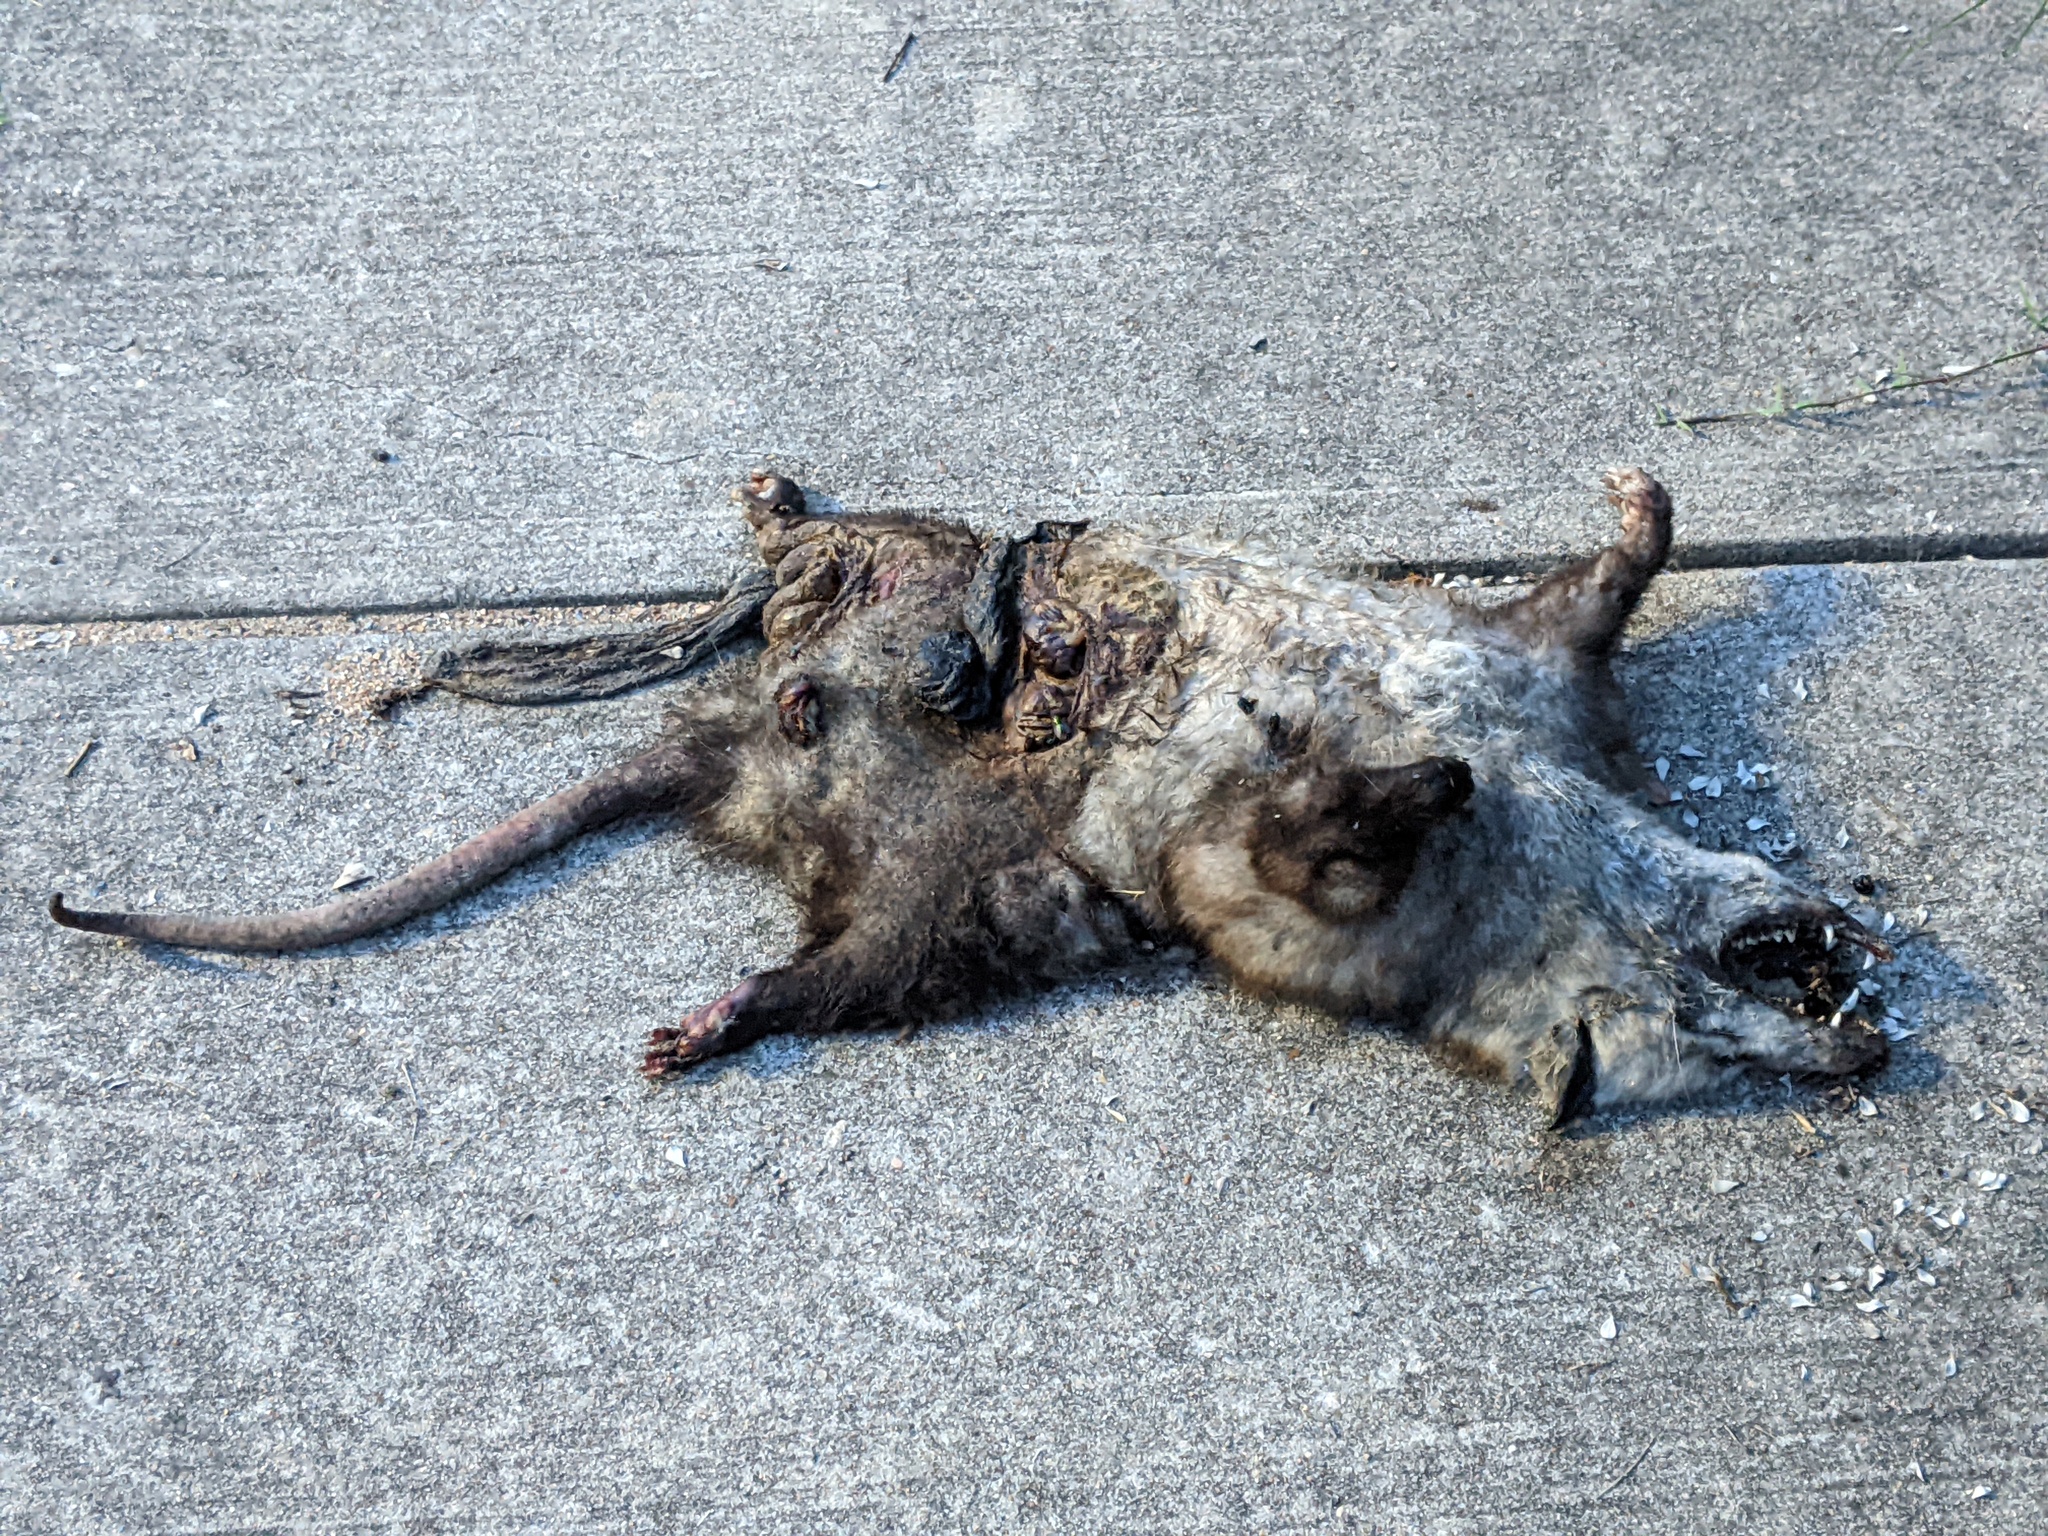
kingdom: Animalia
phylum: Chordata
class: Mammalia
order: Didelphimorphia
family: Didelphidae
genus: Didelphis
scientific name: Didelphis virginiana
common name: Virginia opossum
